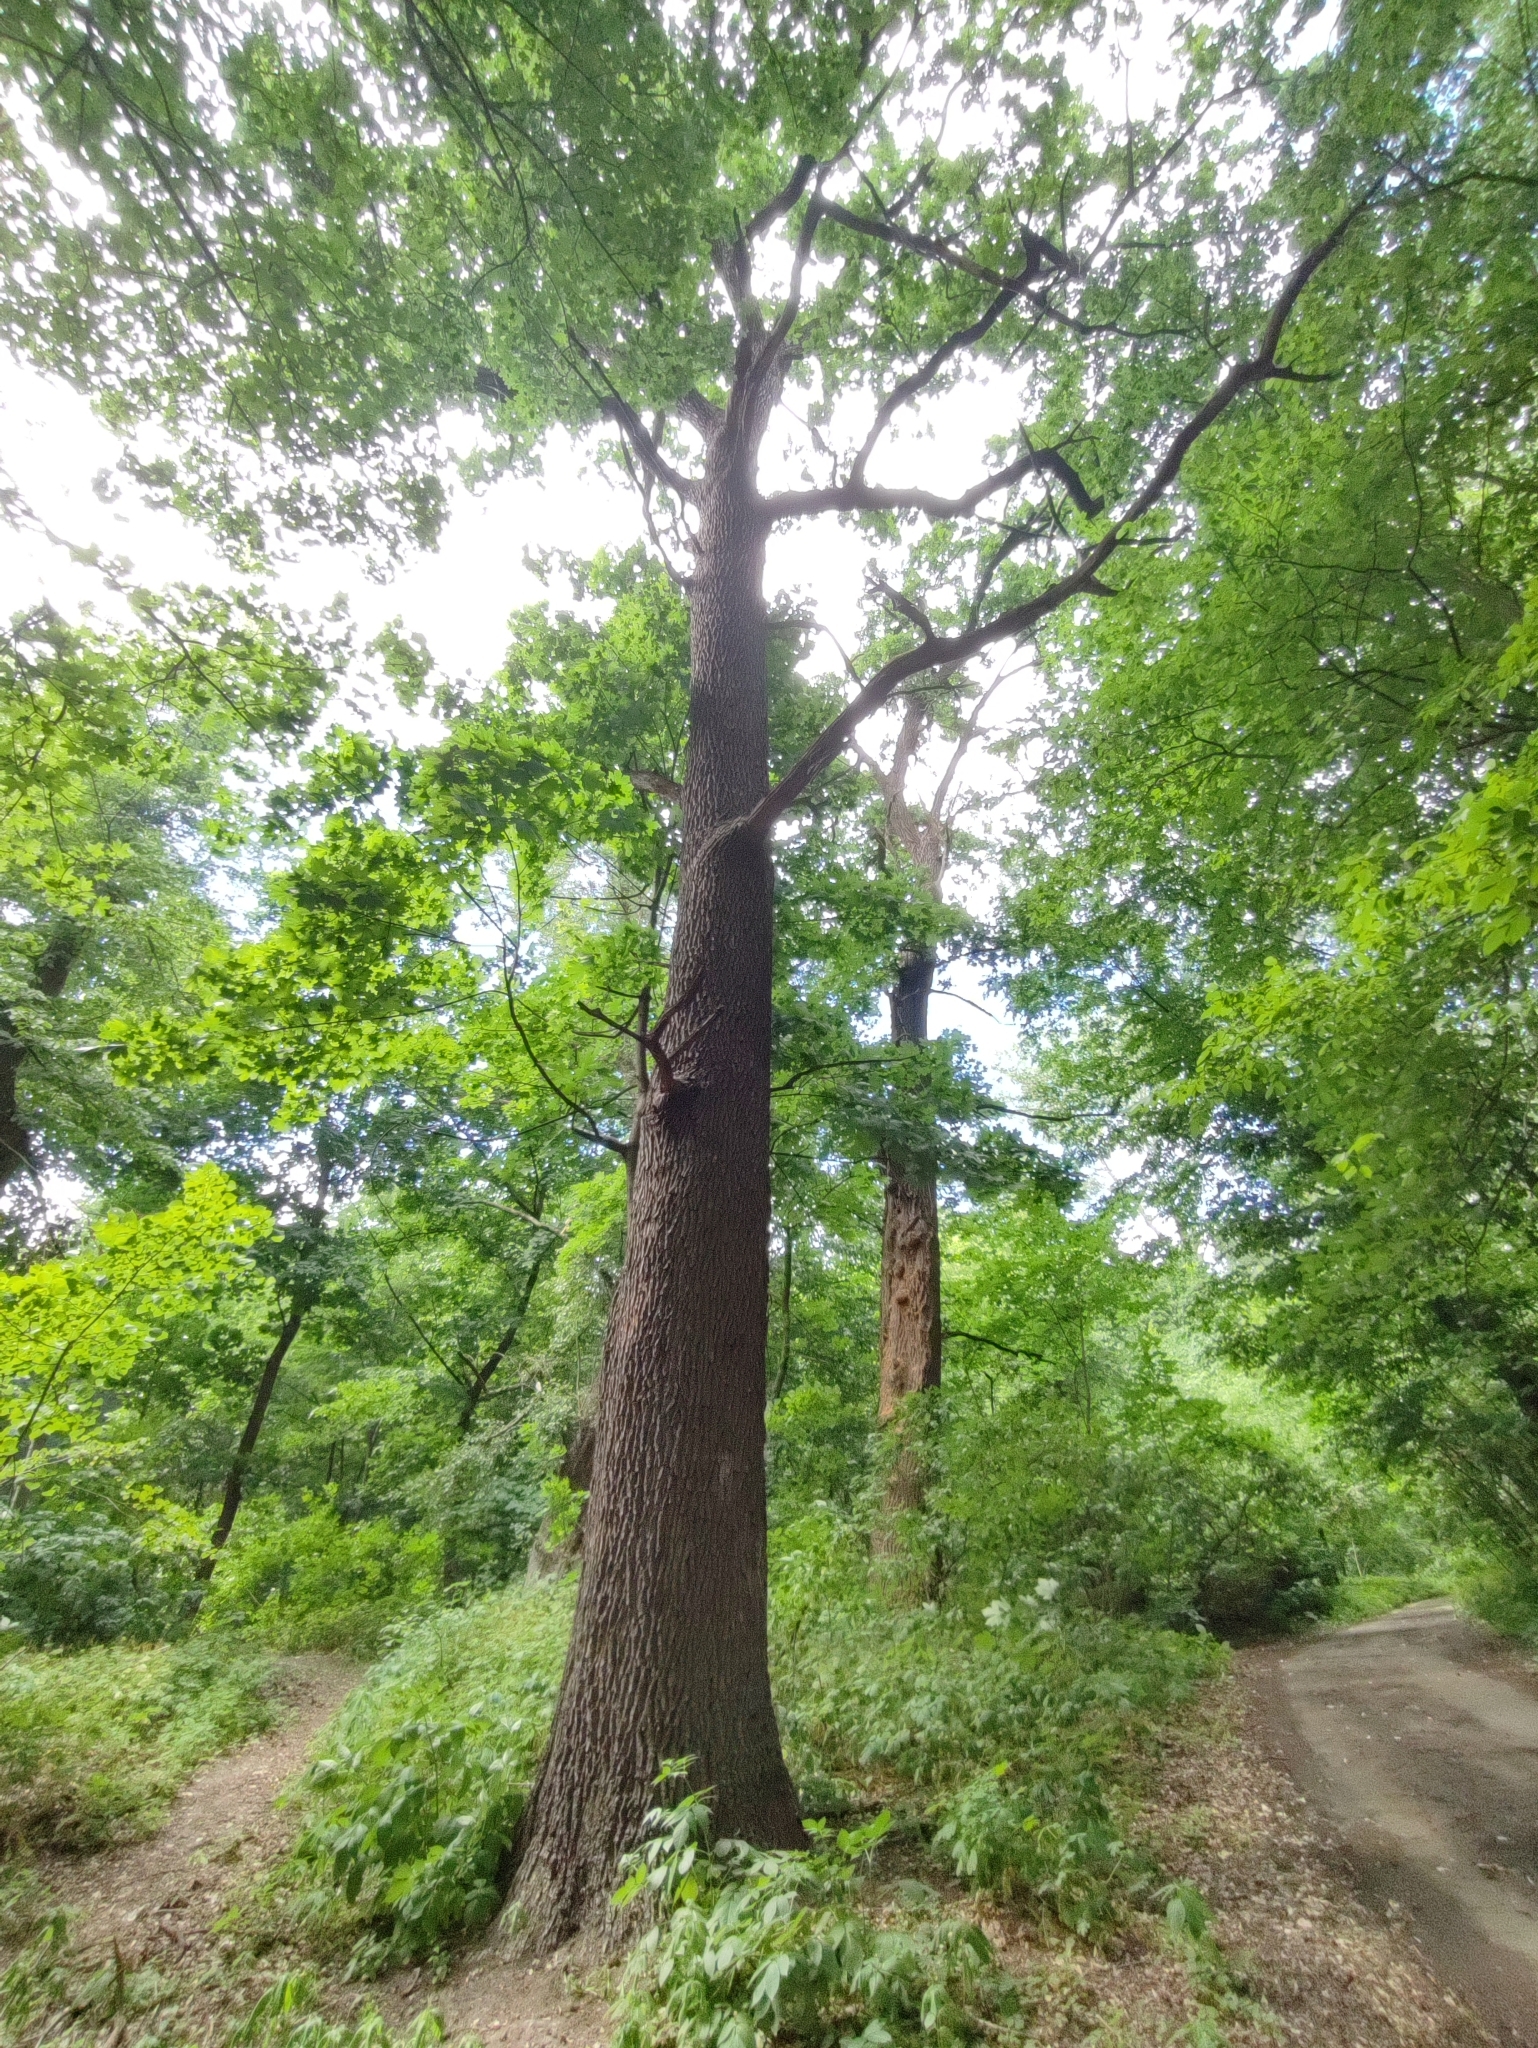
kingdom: Plantae
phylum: Tracheophyta
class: Magnoliopsida
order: Fagales
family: Fagaceae
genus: Quercus
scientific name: Quercus robur
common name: Pedunculate oak
